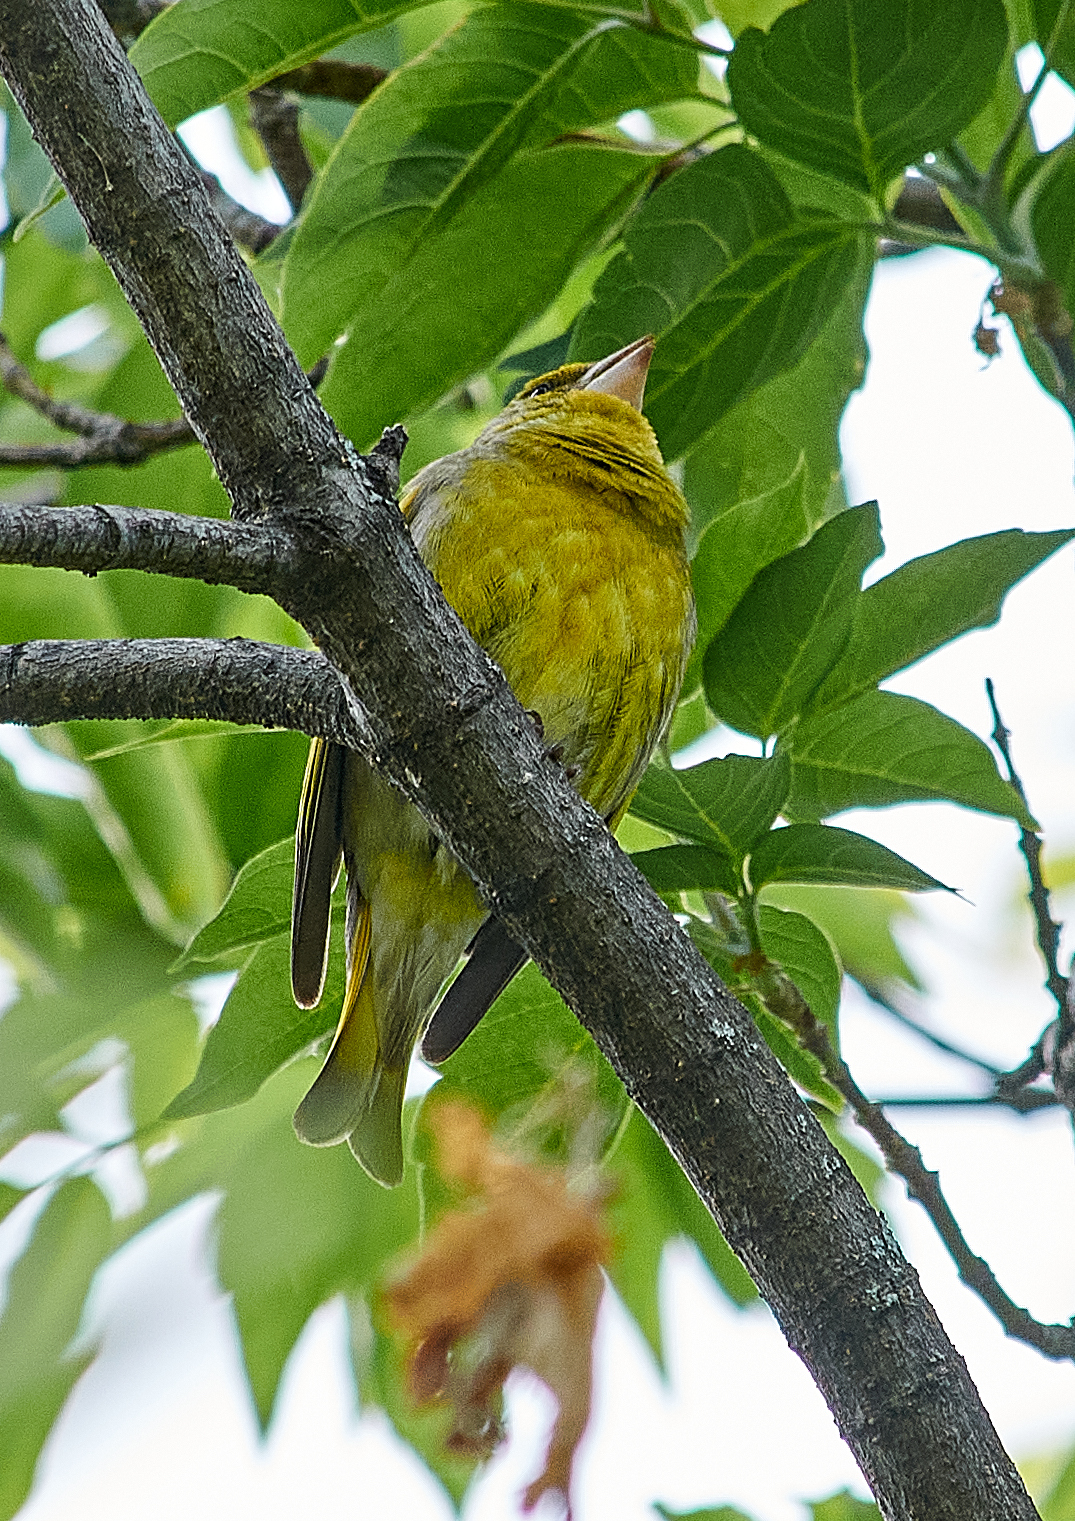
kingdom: Plantae
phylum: Tracheophyta
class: Liliopsida
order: Poales
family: Poaceae
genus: Chloris
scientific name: Chloris chloris
